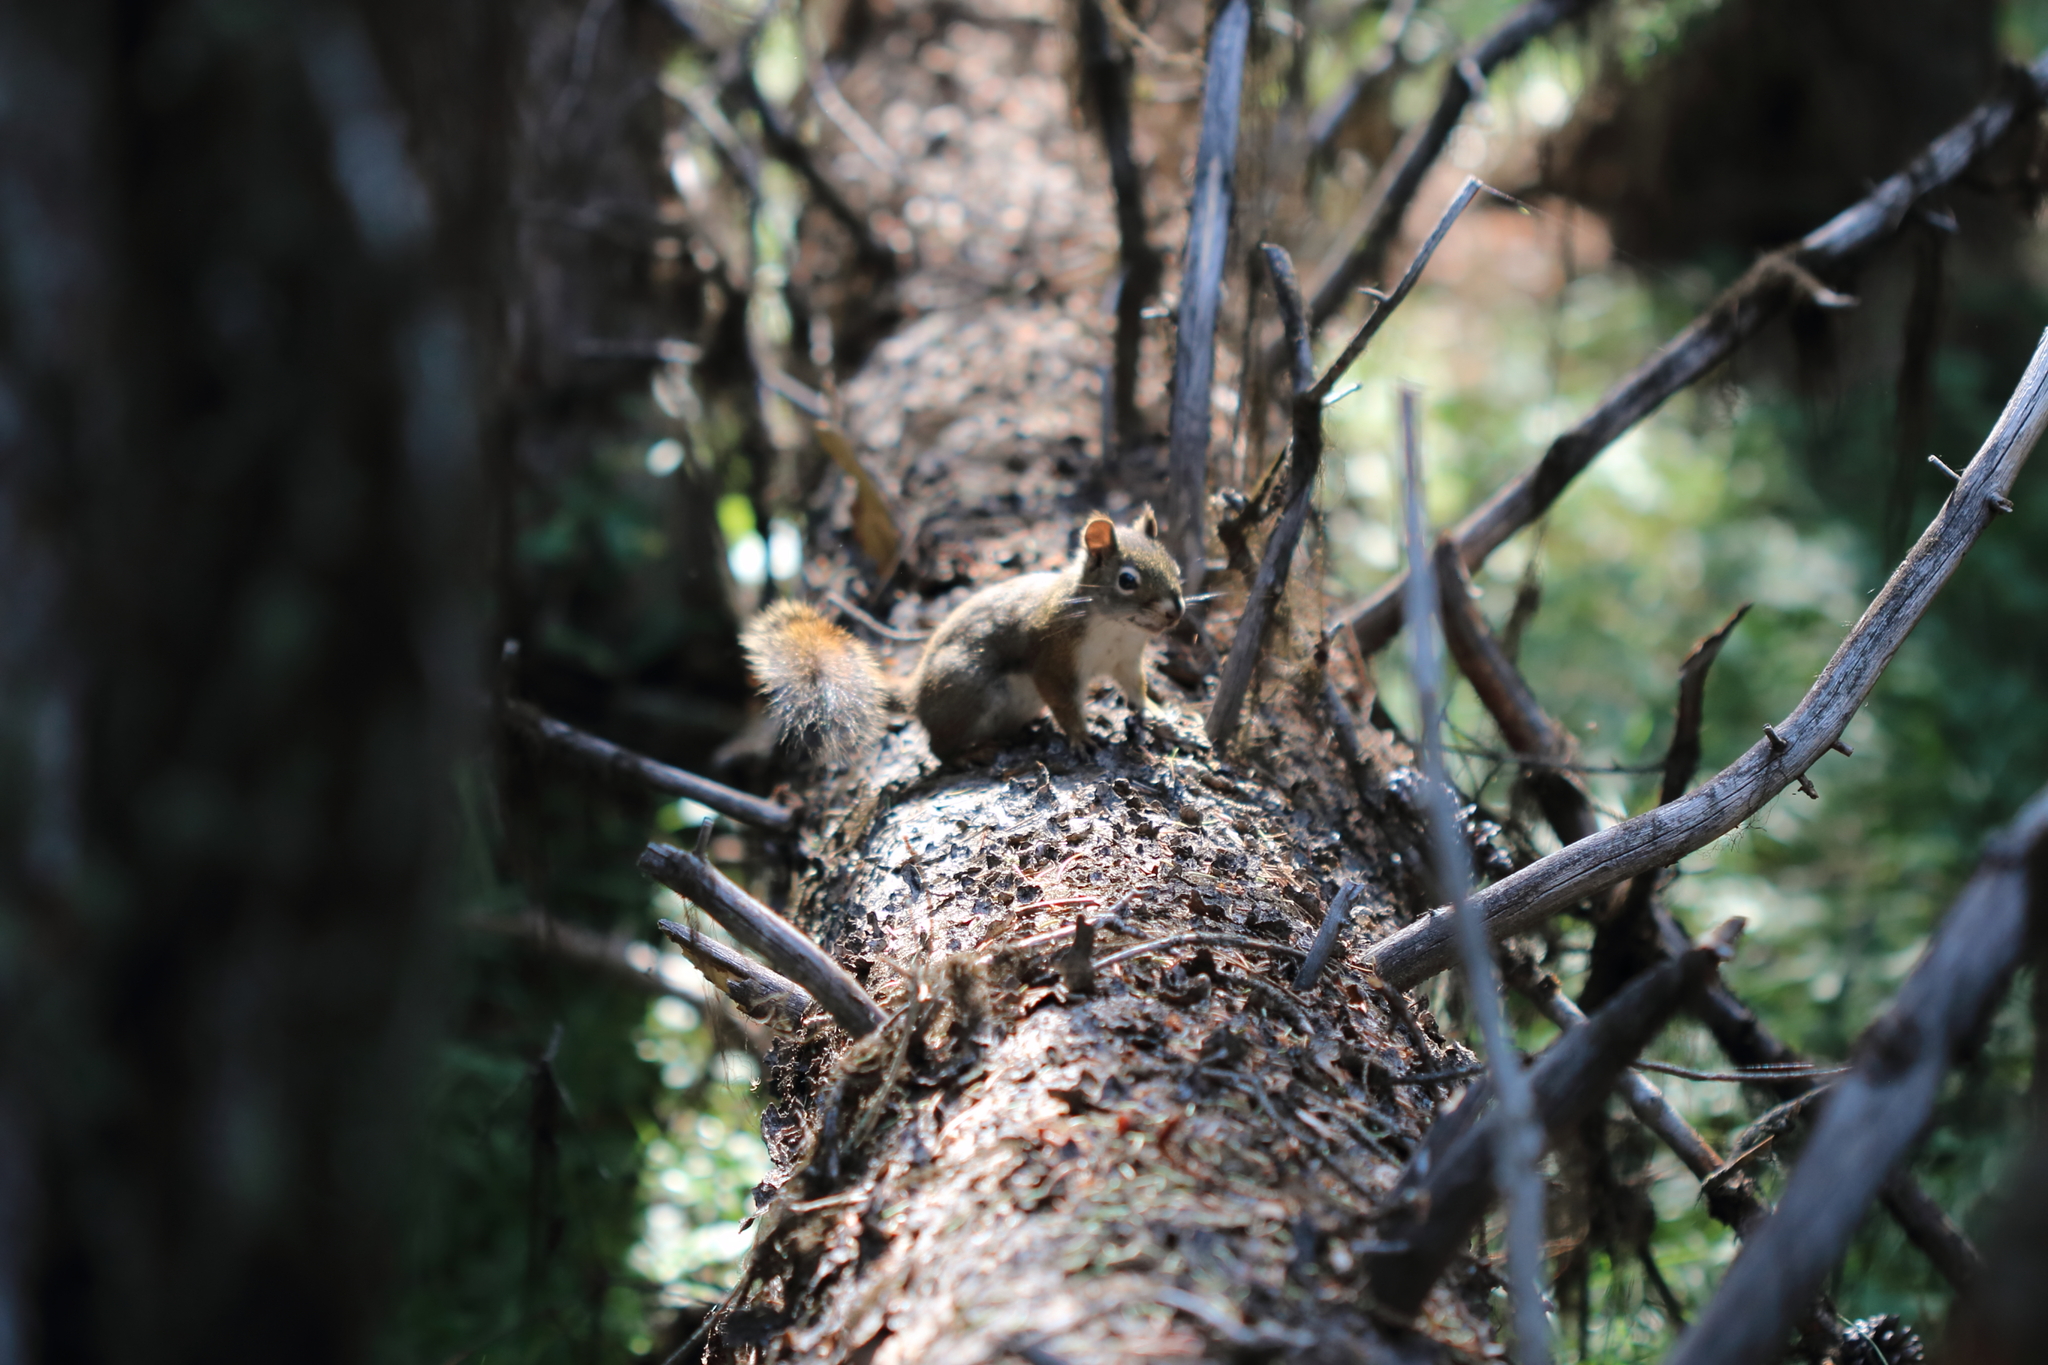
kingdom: Animalia
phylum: Chordata
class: Mammalia
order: Rodentia
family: Sciuridae
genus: Tamiasciurus
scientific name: Tamiasciurus hudsonicus
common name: Red squirrel
